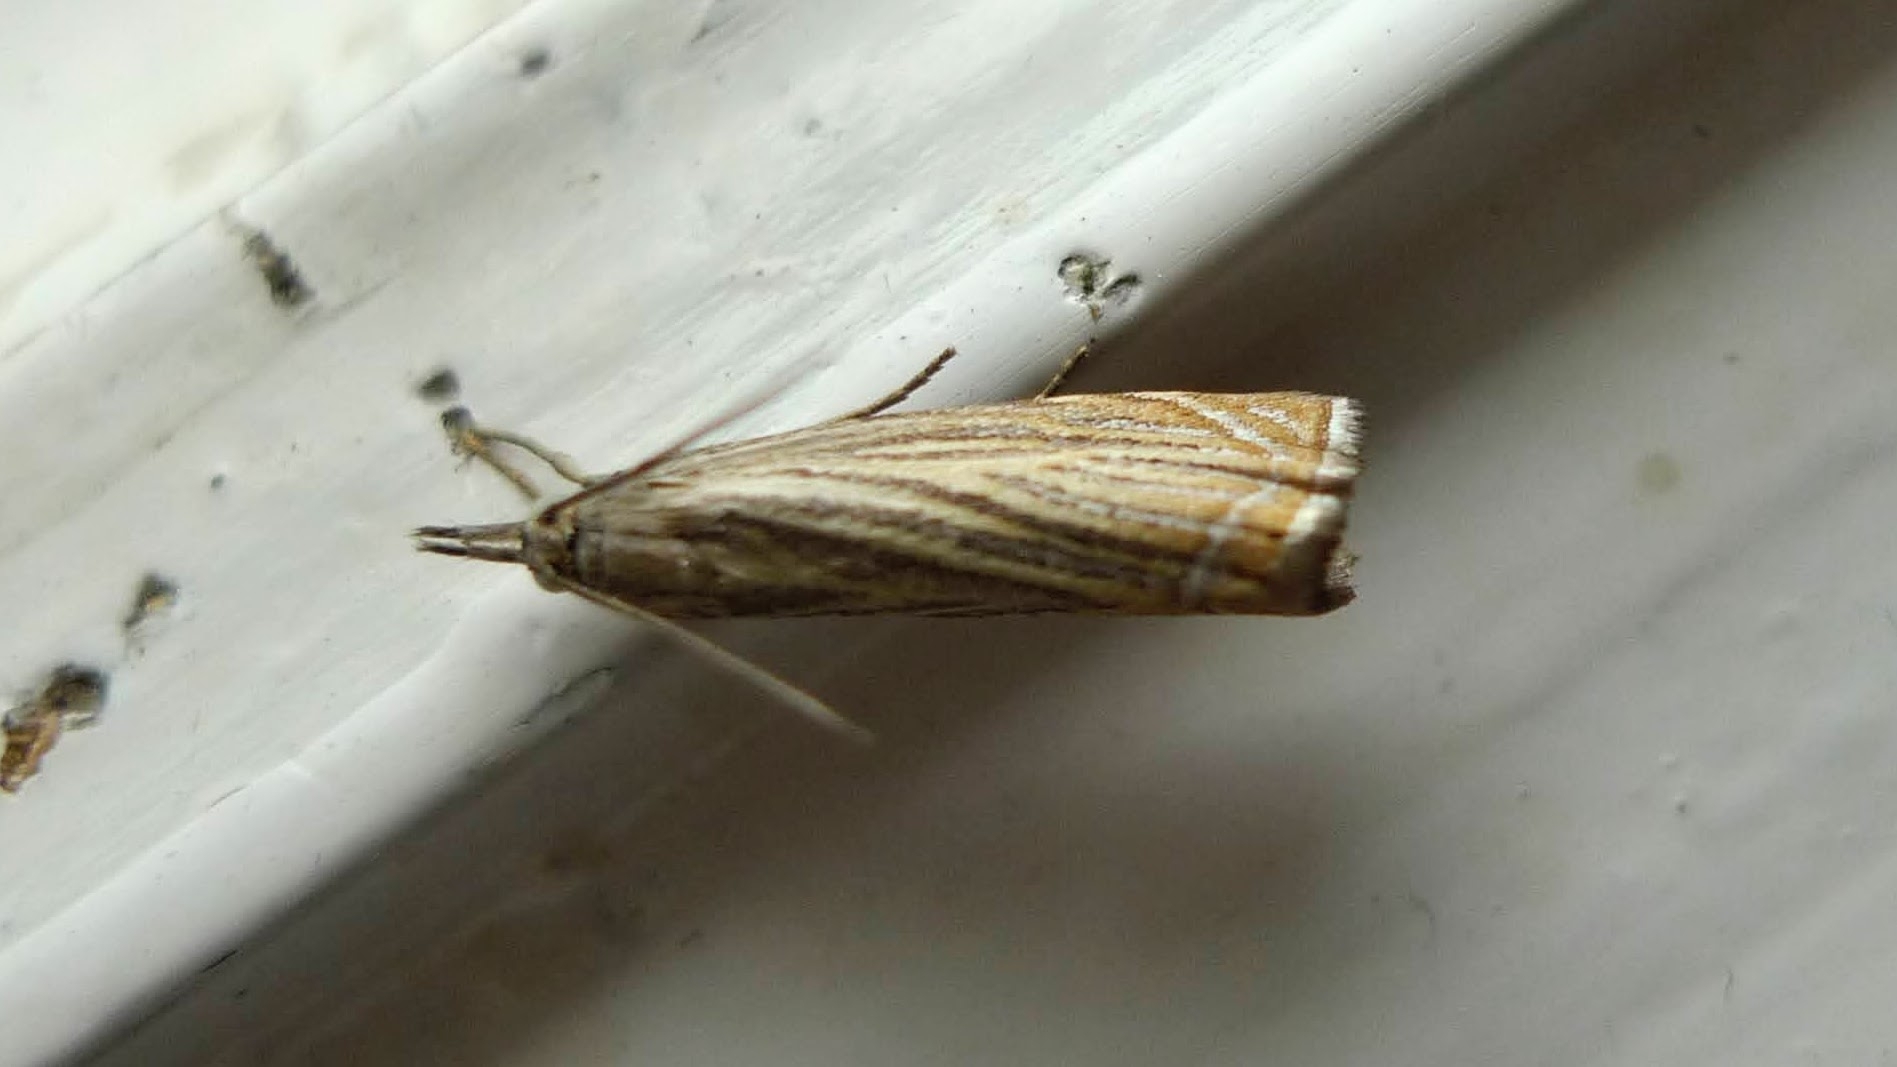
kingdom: Animalia
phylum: Arthropoda
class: Insecta
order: Lepidoptera
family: Crambidae
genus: Chrysoteuchia
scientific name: Chrysoteuchia culmella
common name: Garden grass-veneer
